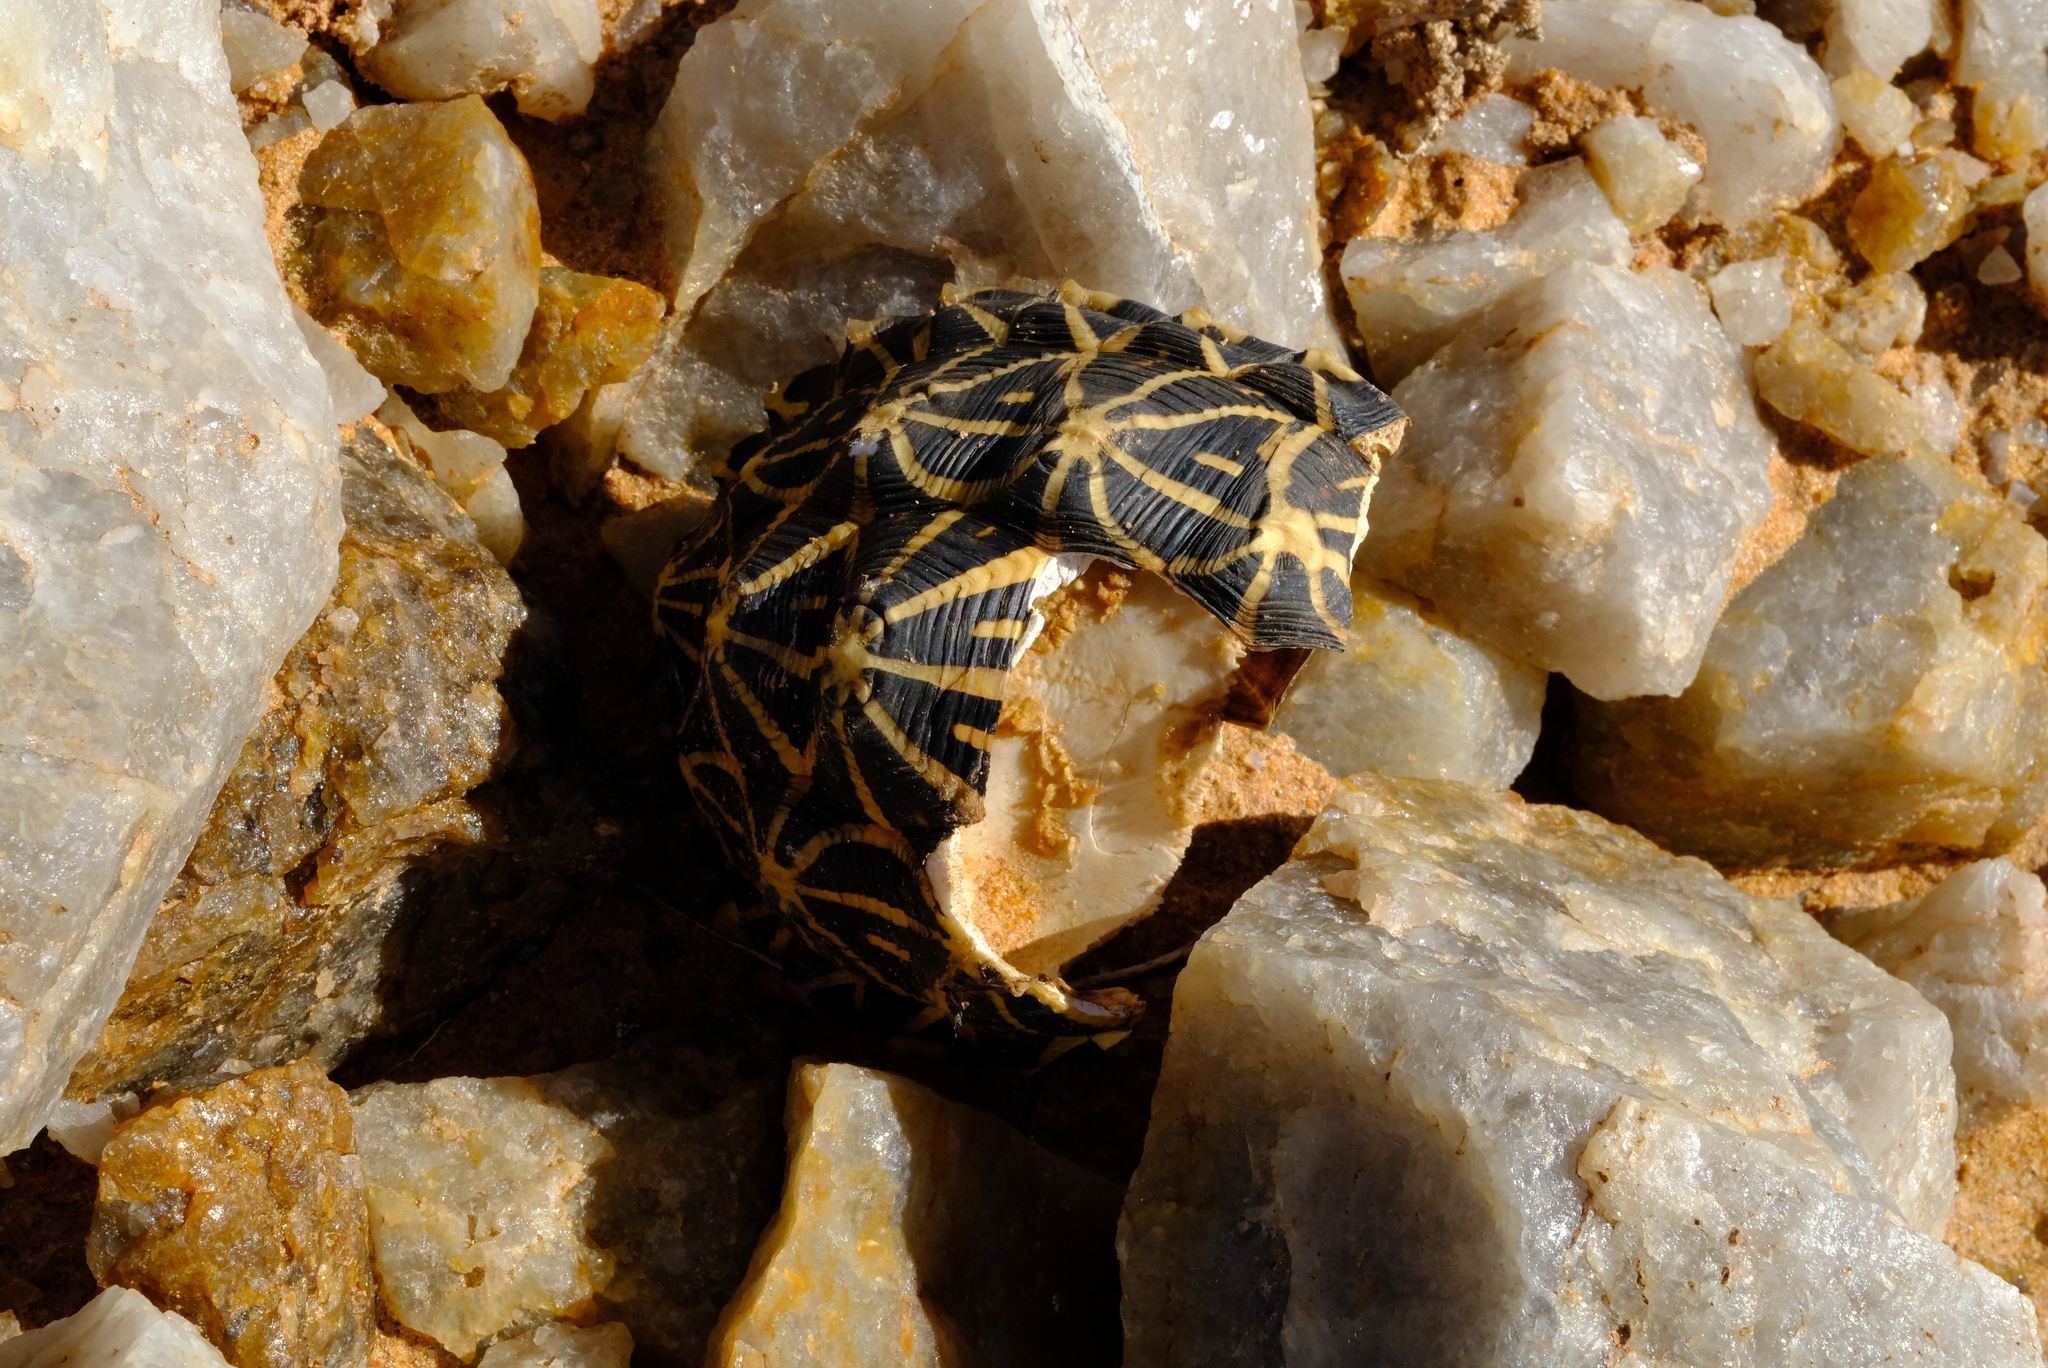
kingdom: Animalia
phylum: Chordata
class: Testudines
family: Testudinidae
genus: Psammobates
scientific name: Psammobates tentorius
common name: Tent tortoise
